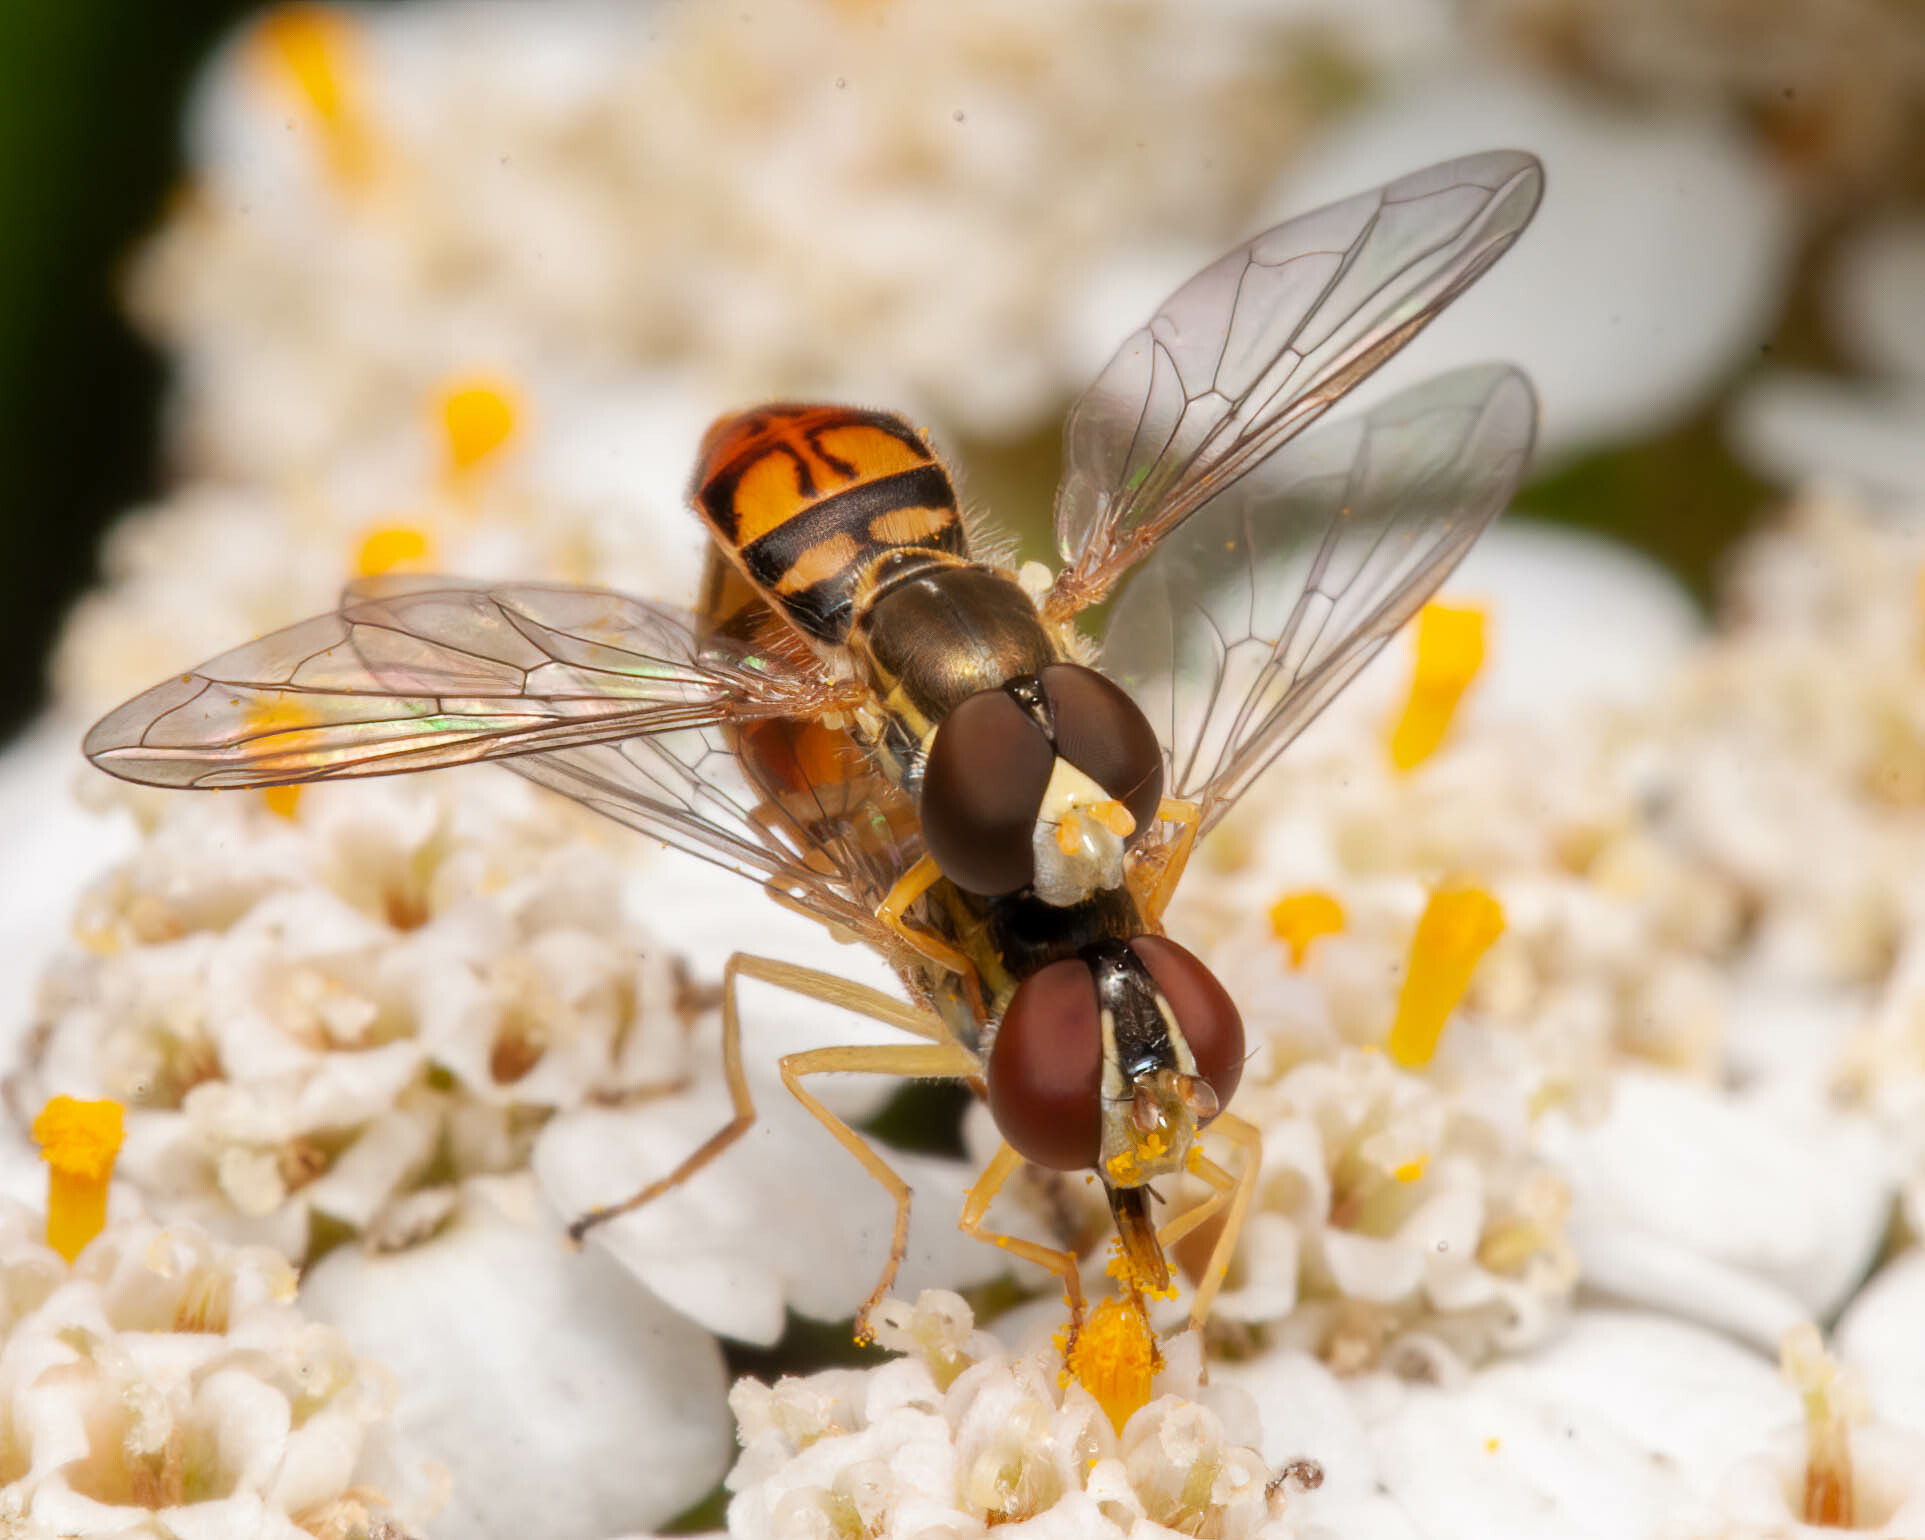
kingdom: Animalia
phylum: Arthropoda
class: Insecta
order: Diptera
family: Syrphidae
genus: Toxomerus
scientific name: Toxomerus marginatus
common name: Syrphid fly
